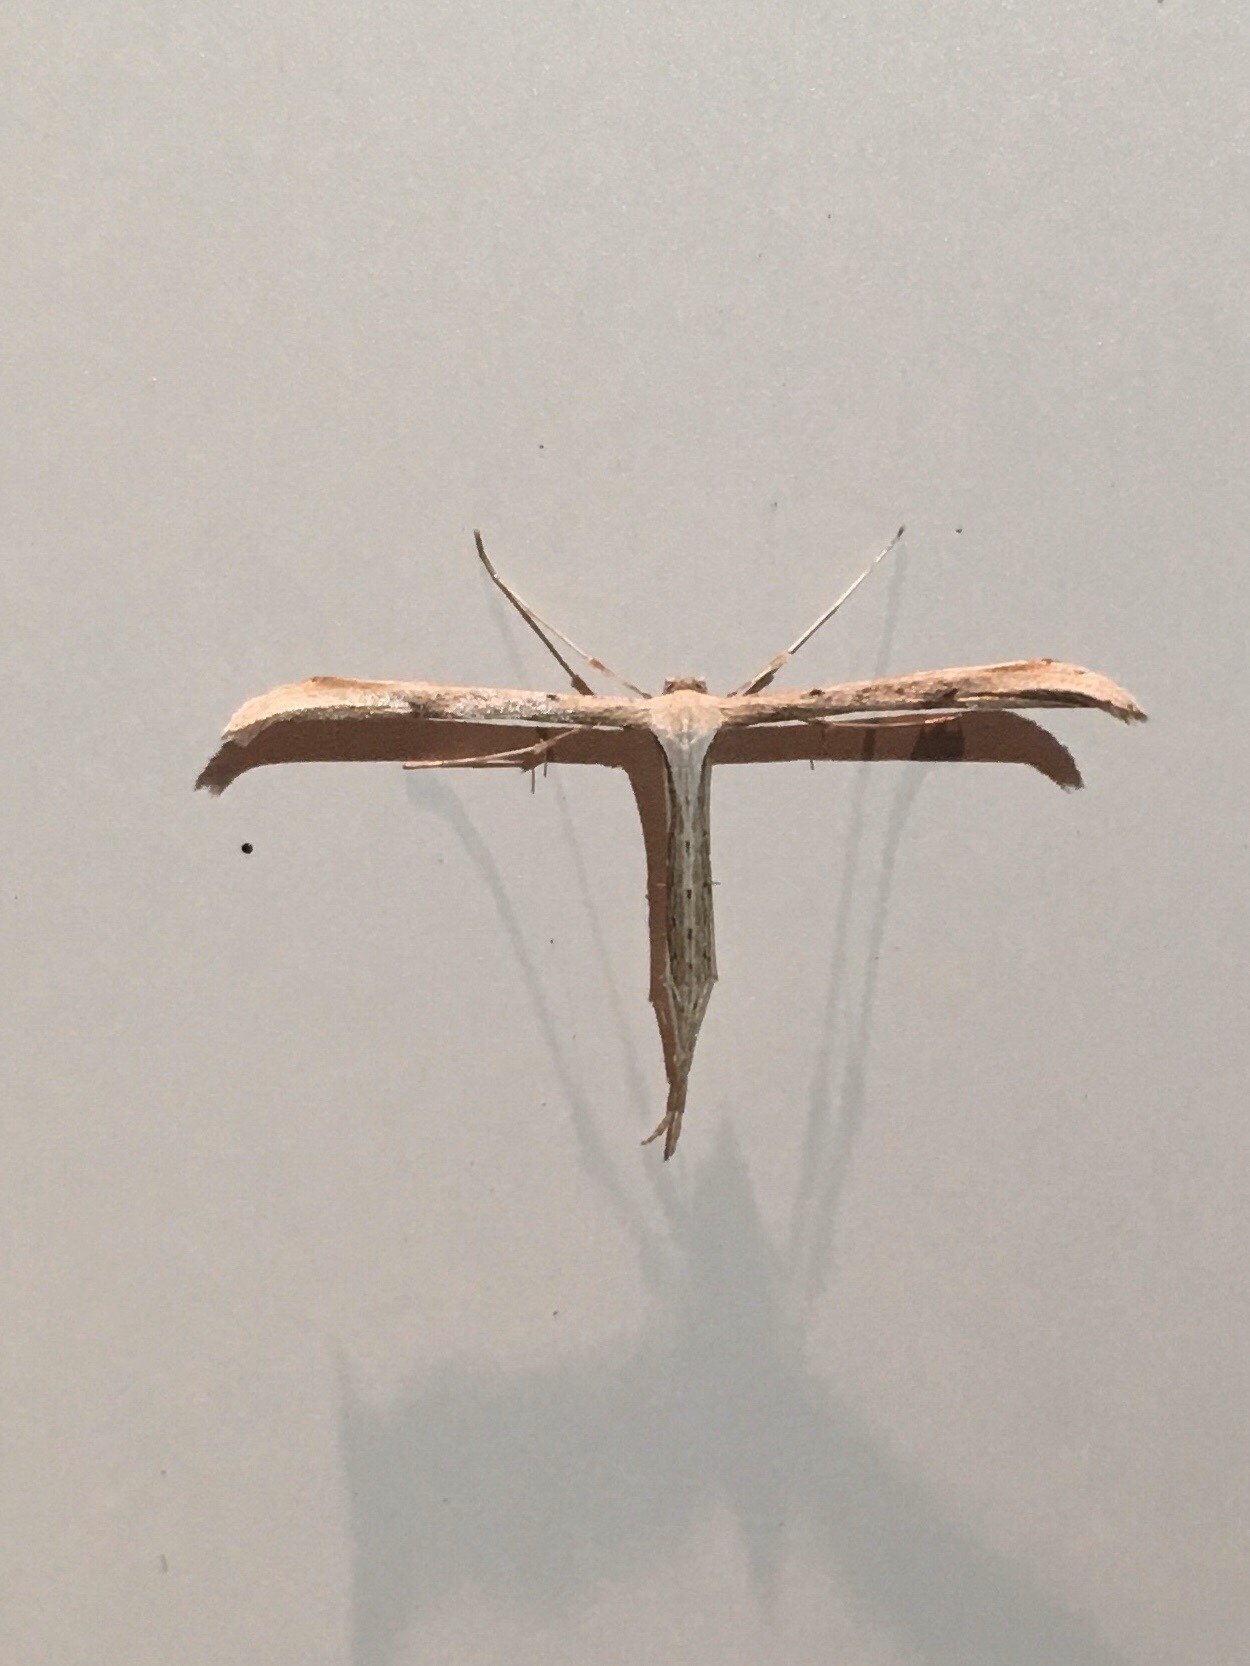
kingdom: Animalia
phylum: Arthropoda
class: Insecta
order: Lepidoptera
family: Pterophoridae
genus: Emmelina
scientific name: Emmelina monodactyla
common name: Common plume
